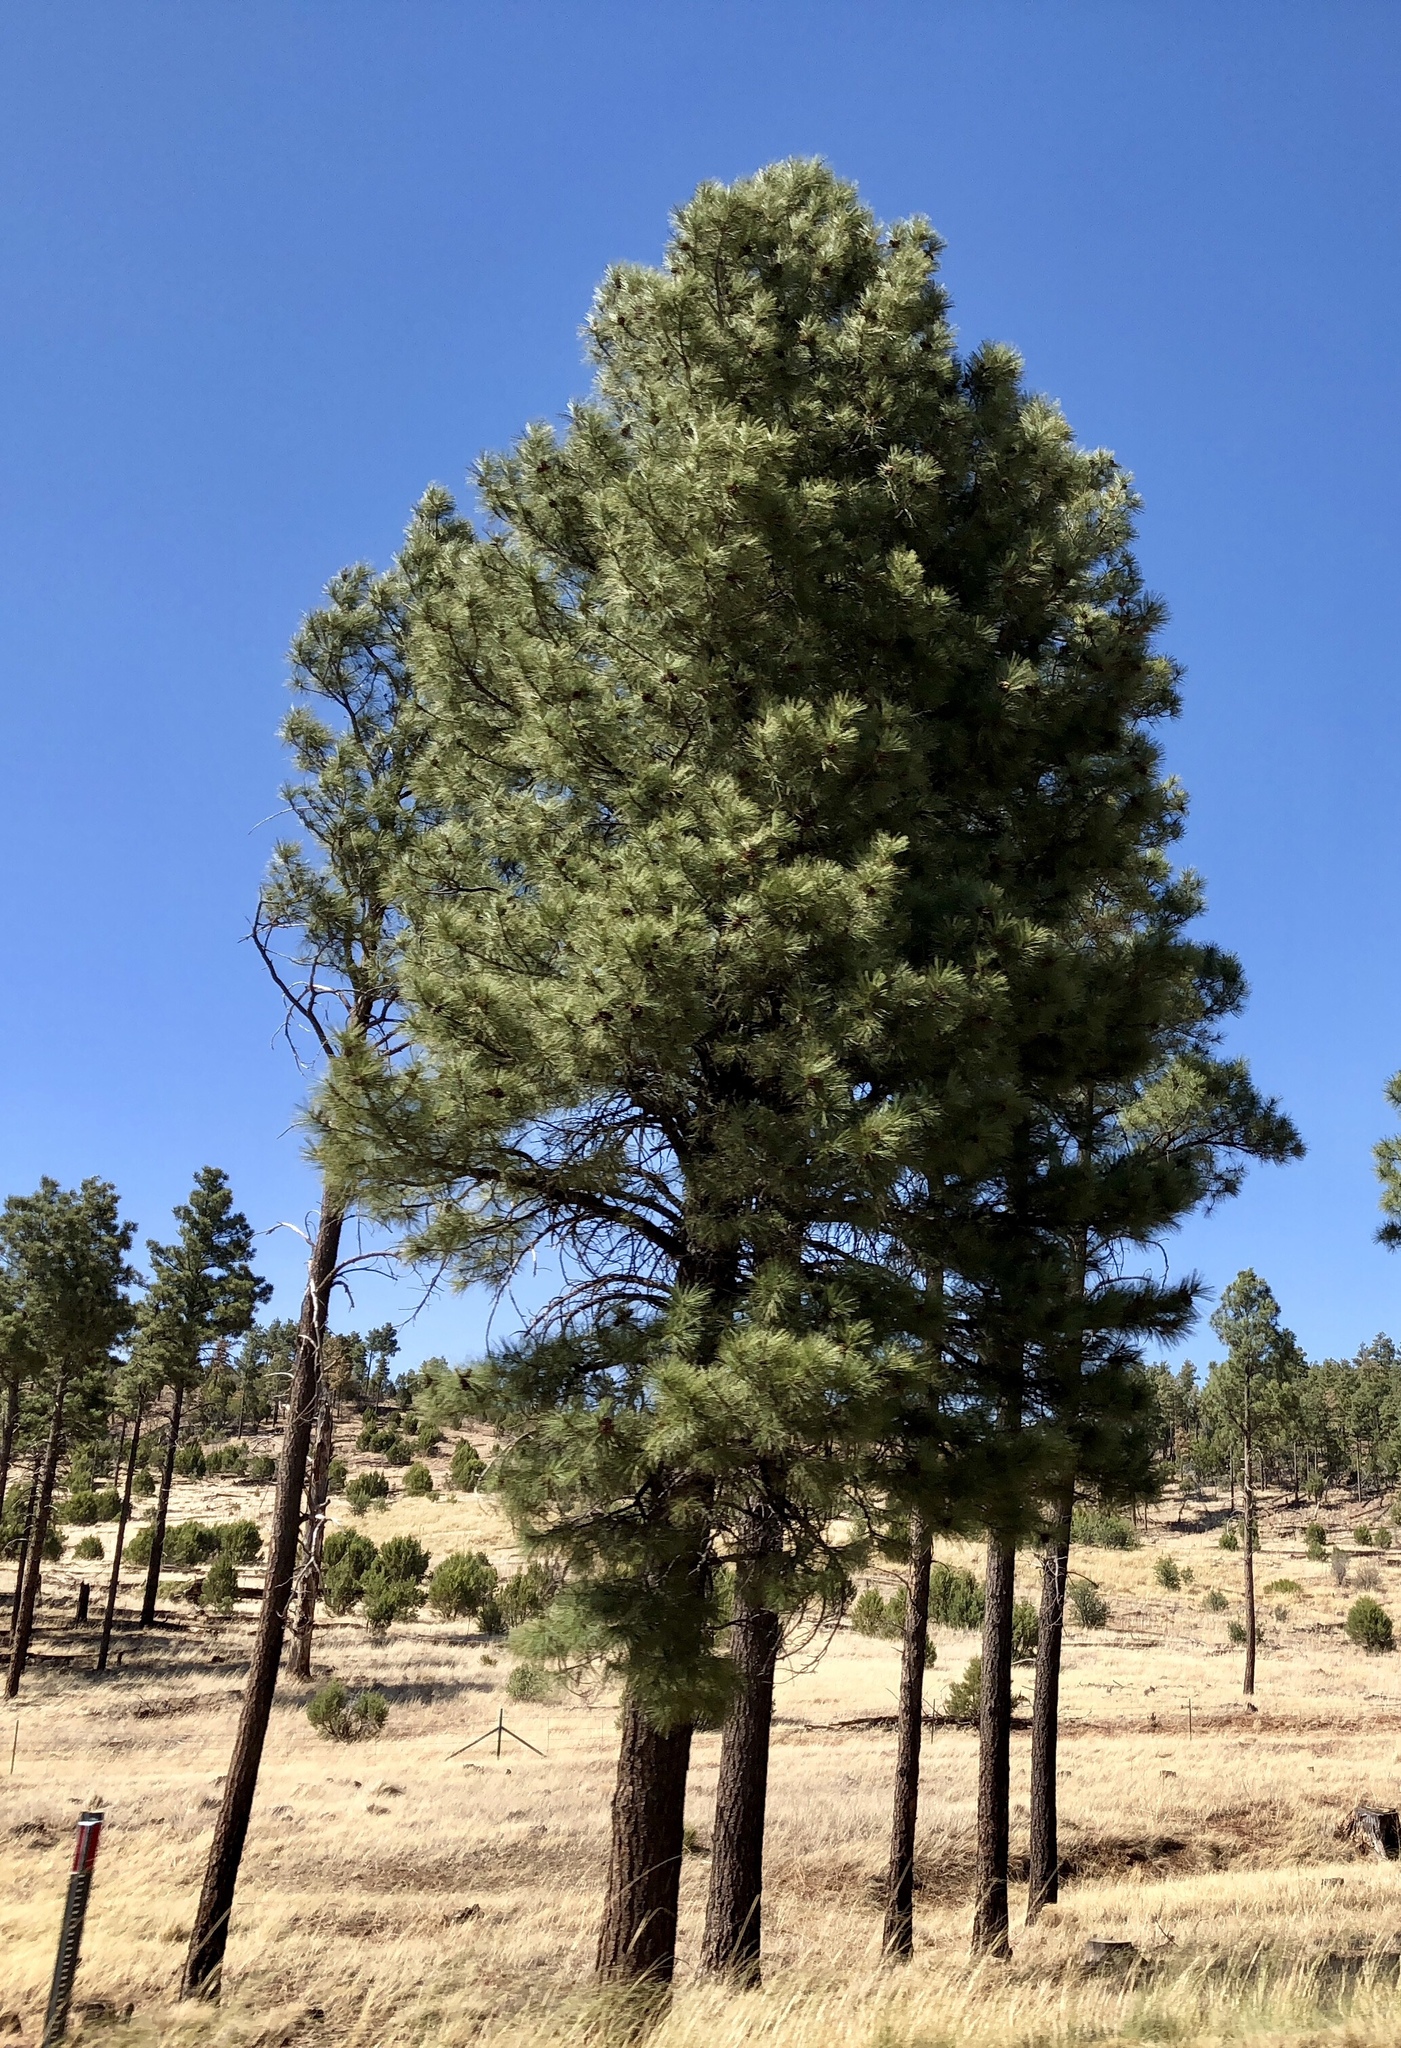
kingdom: Plantae
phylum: Tracheophyta
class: Pinopsida
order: Pinales
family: Pinaceae
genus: Pinus
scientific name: Pinus ponderosa
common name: Western yellow-pine
